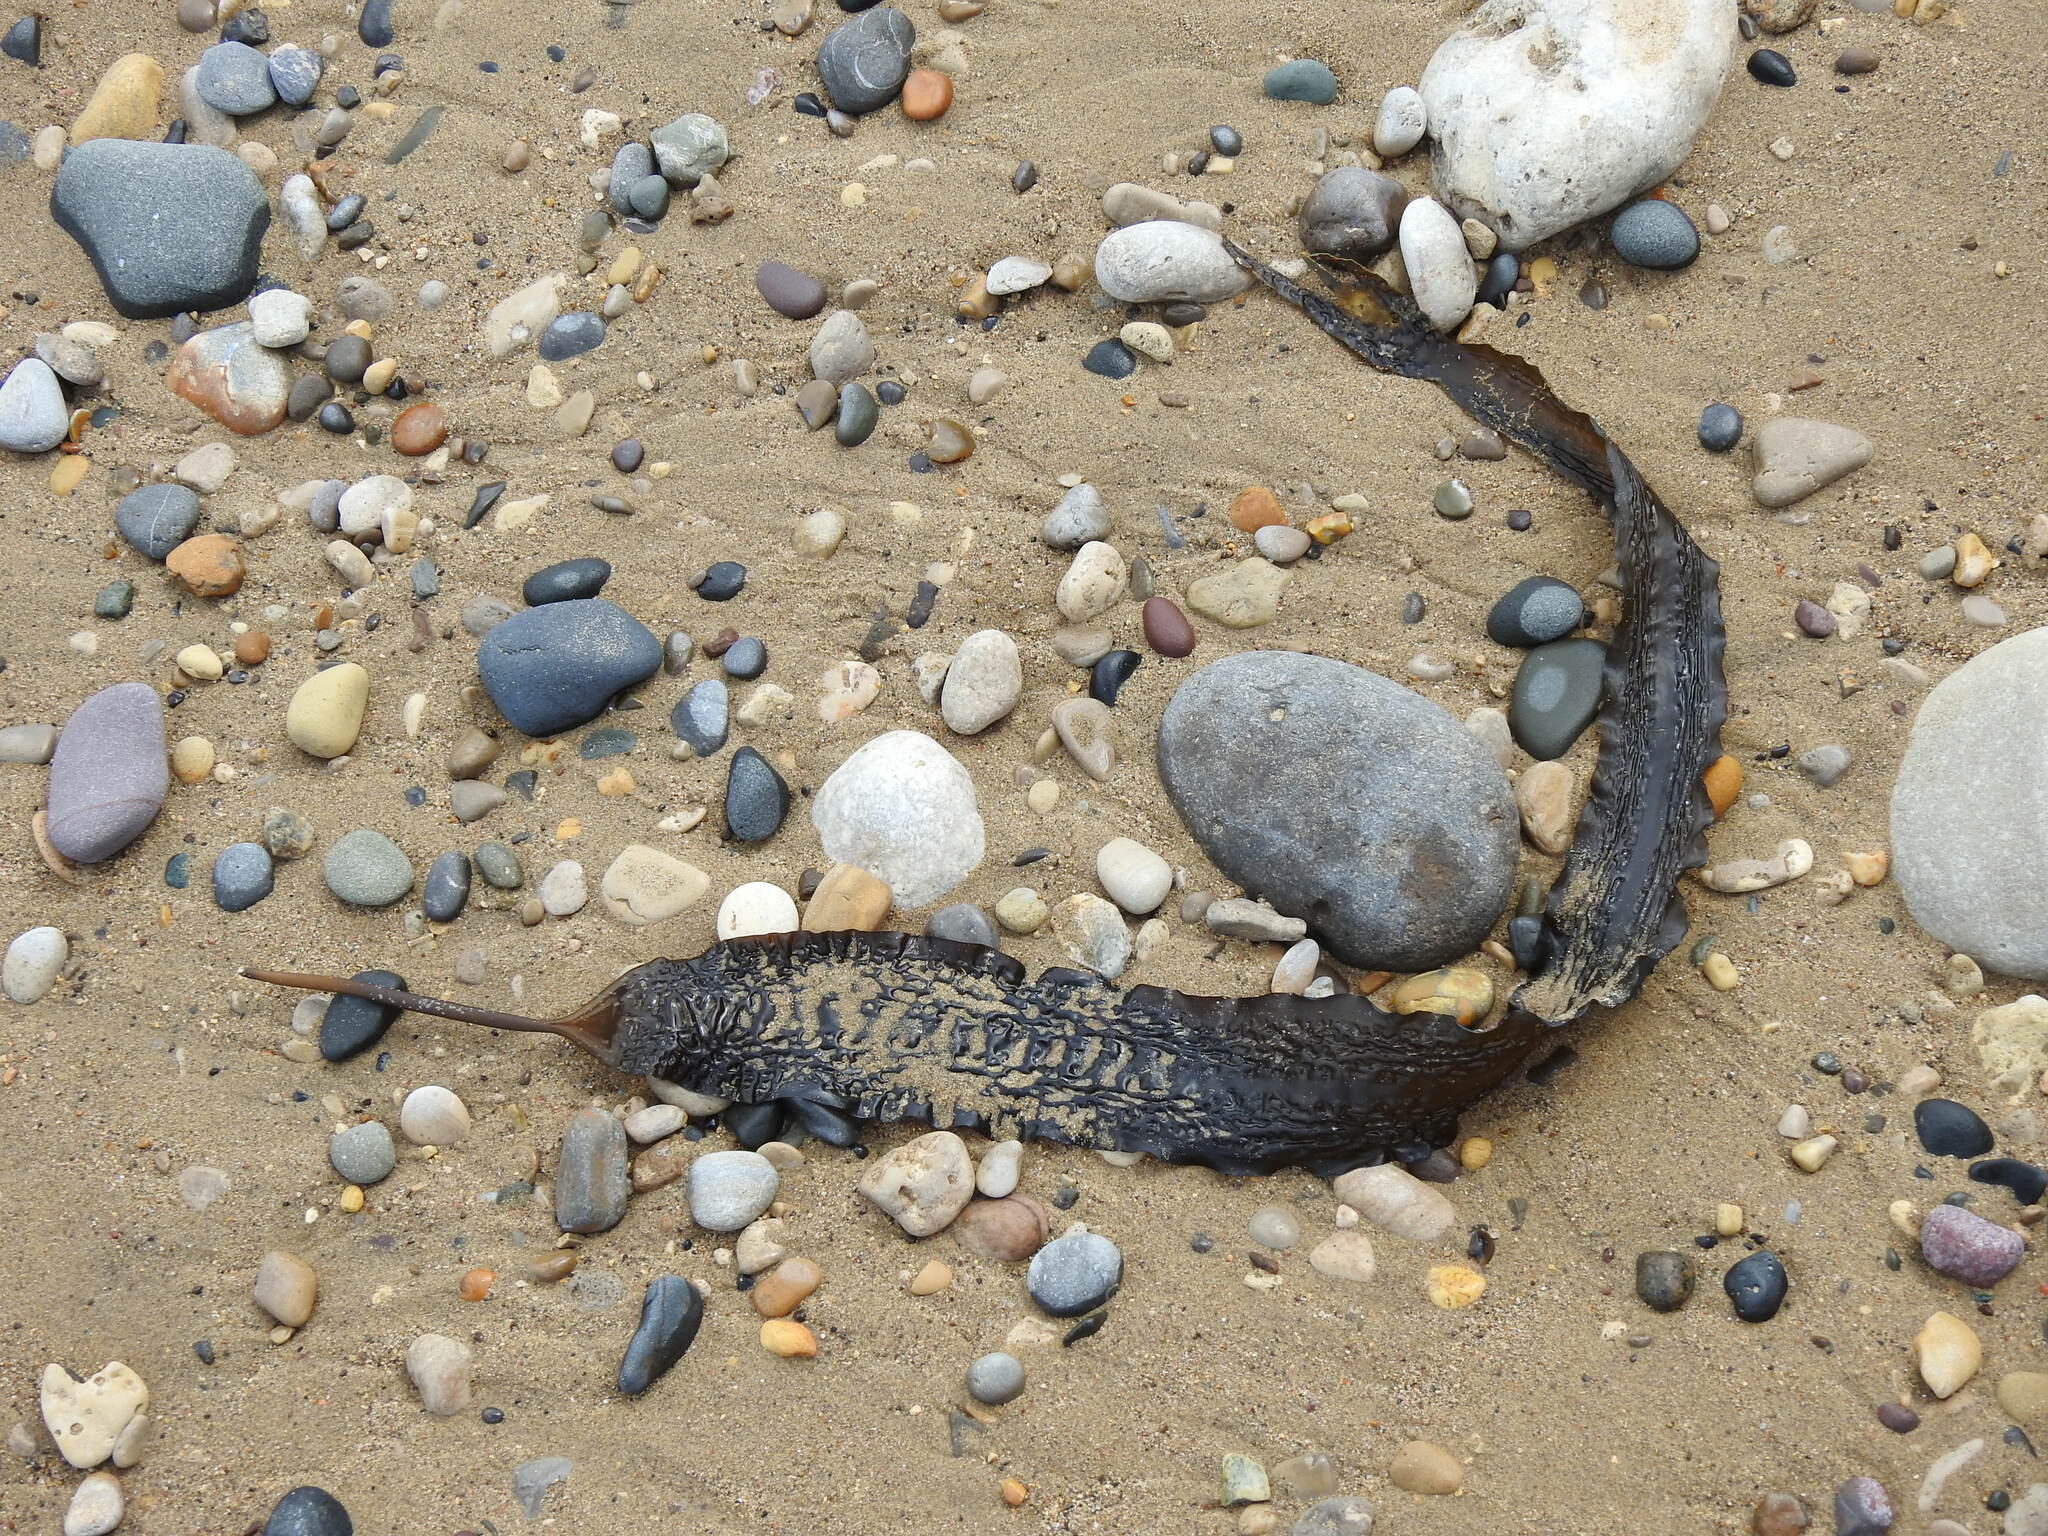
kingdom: Chromista
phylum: Ochrophyta
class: Phaeophyceae
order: Laminariales
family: Laminariaceae
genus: Saccharina
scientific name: Saccharina latissima
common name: Poor man's weather glass
